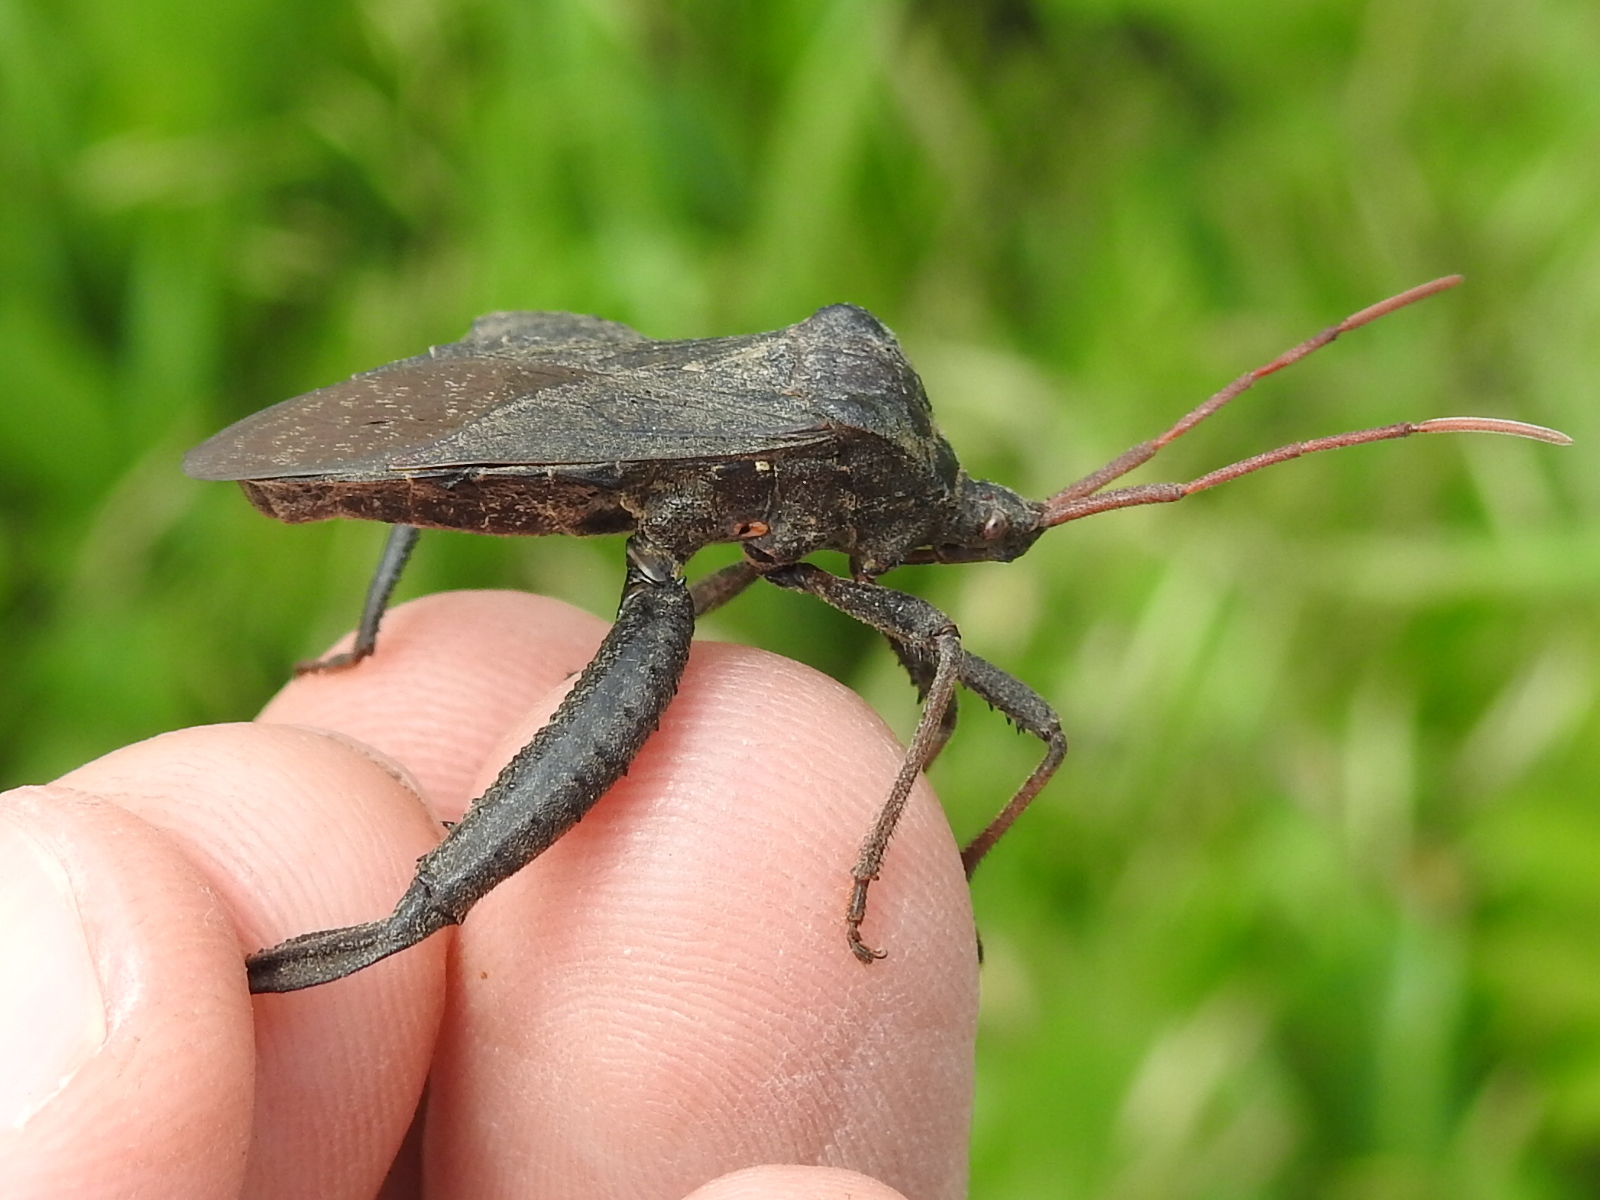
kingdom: Animalia
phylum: Arthropoda
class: Insecta
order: Hemiptera
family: Coreidae
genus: Acanthocephala
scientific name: Acanthocephala femorata
